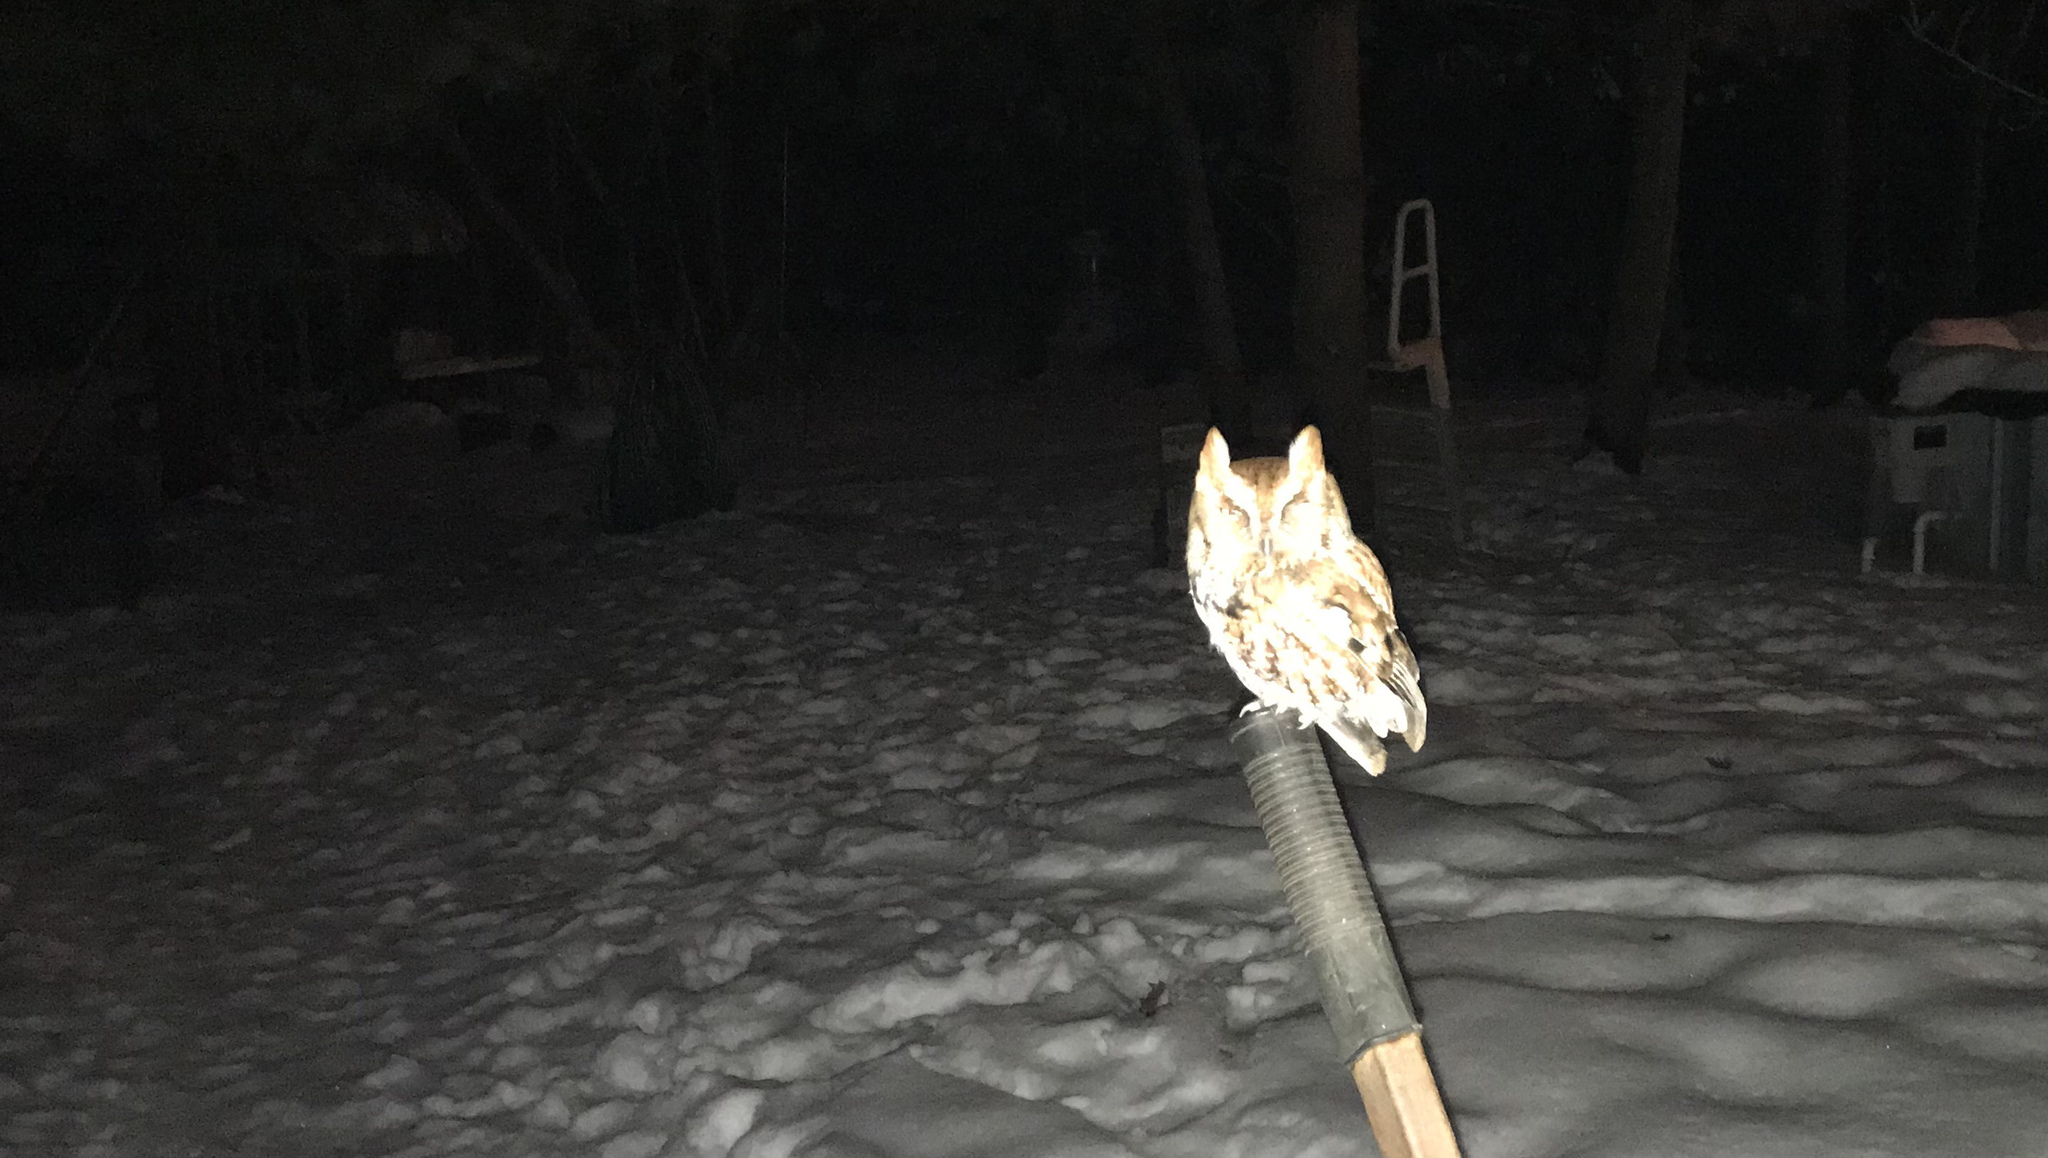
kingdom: Animalia
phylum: Chordata
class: Aves
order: Strigiformes
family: Strigidae
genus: Megascops
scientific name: Megascops asio
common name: Eastern screech-owl
